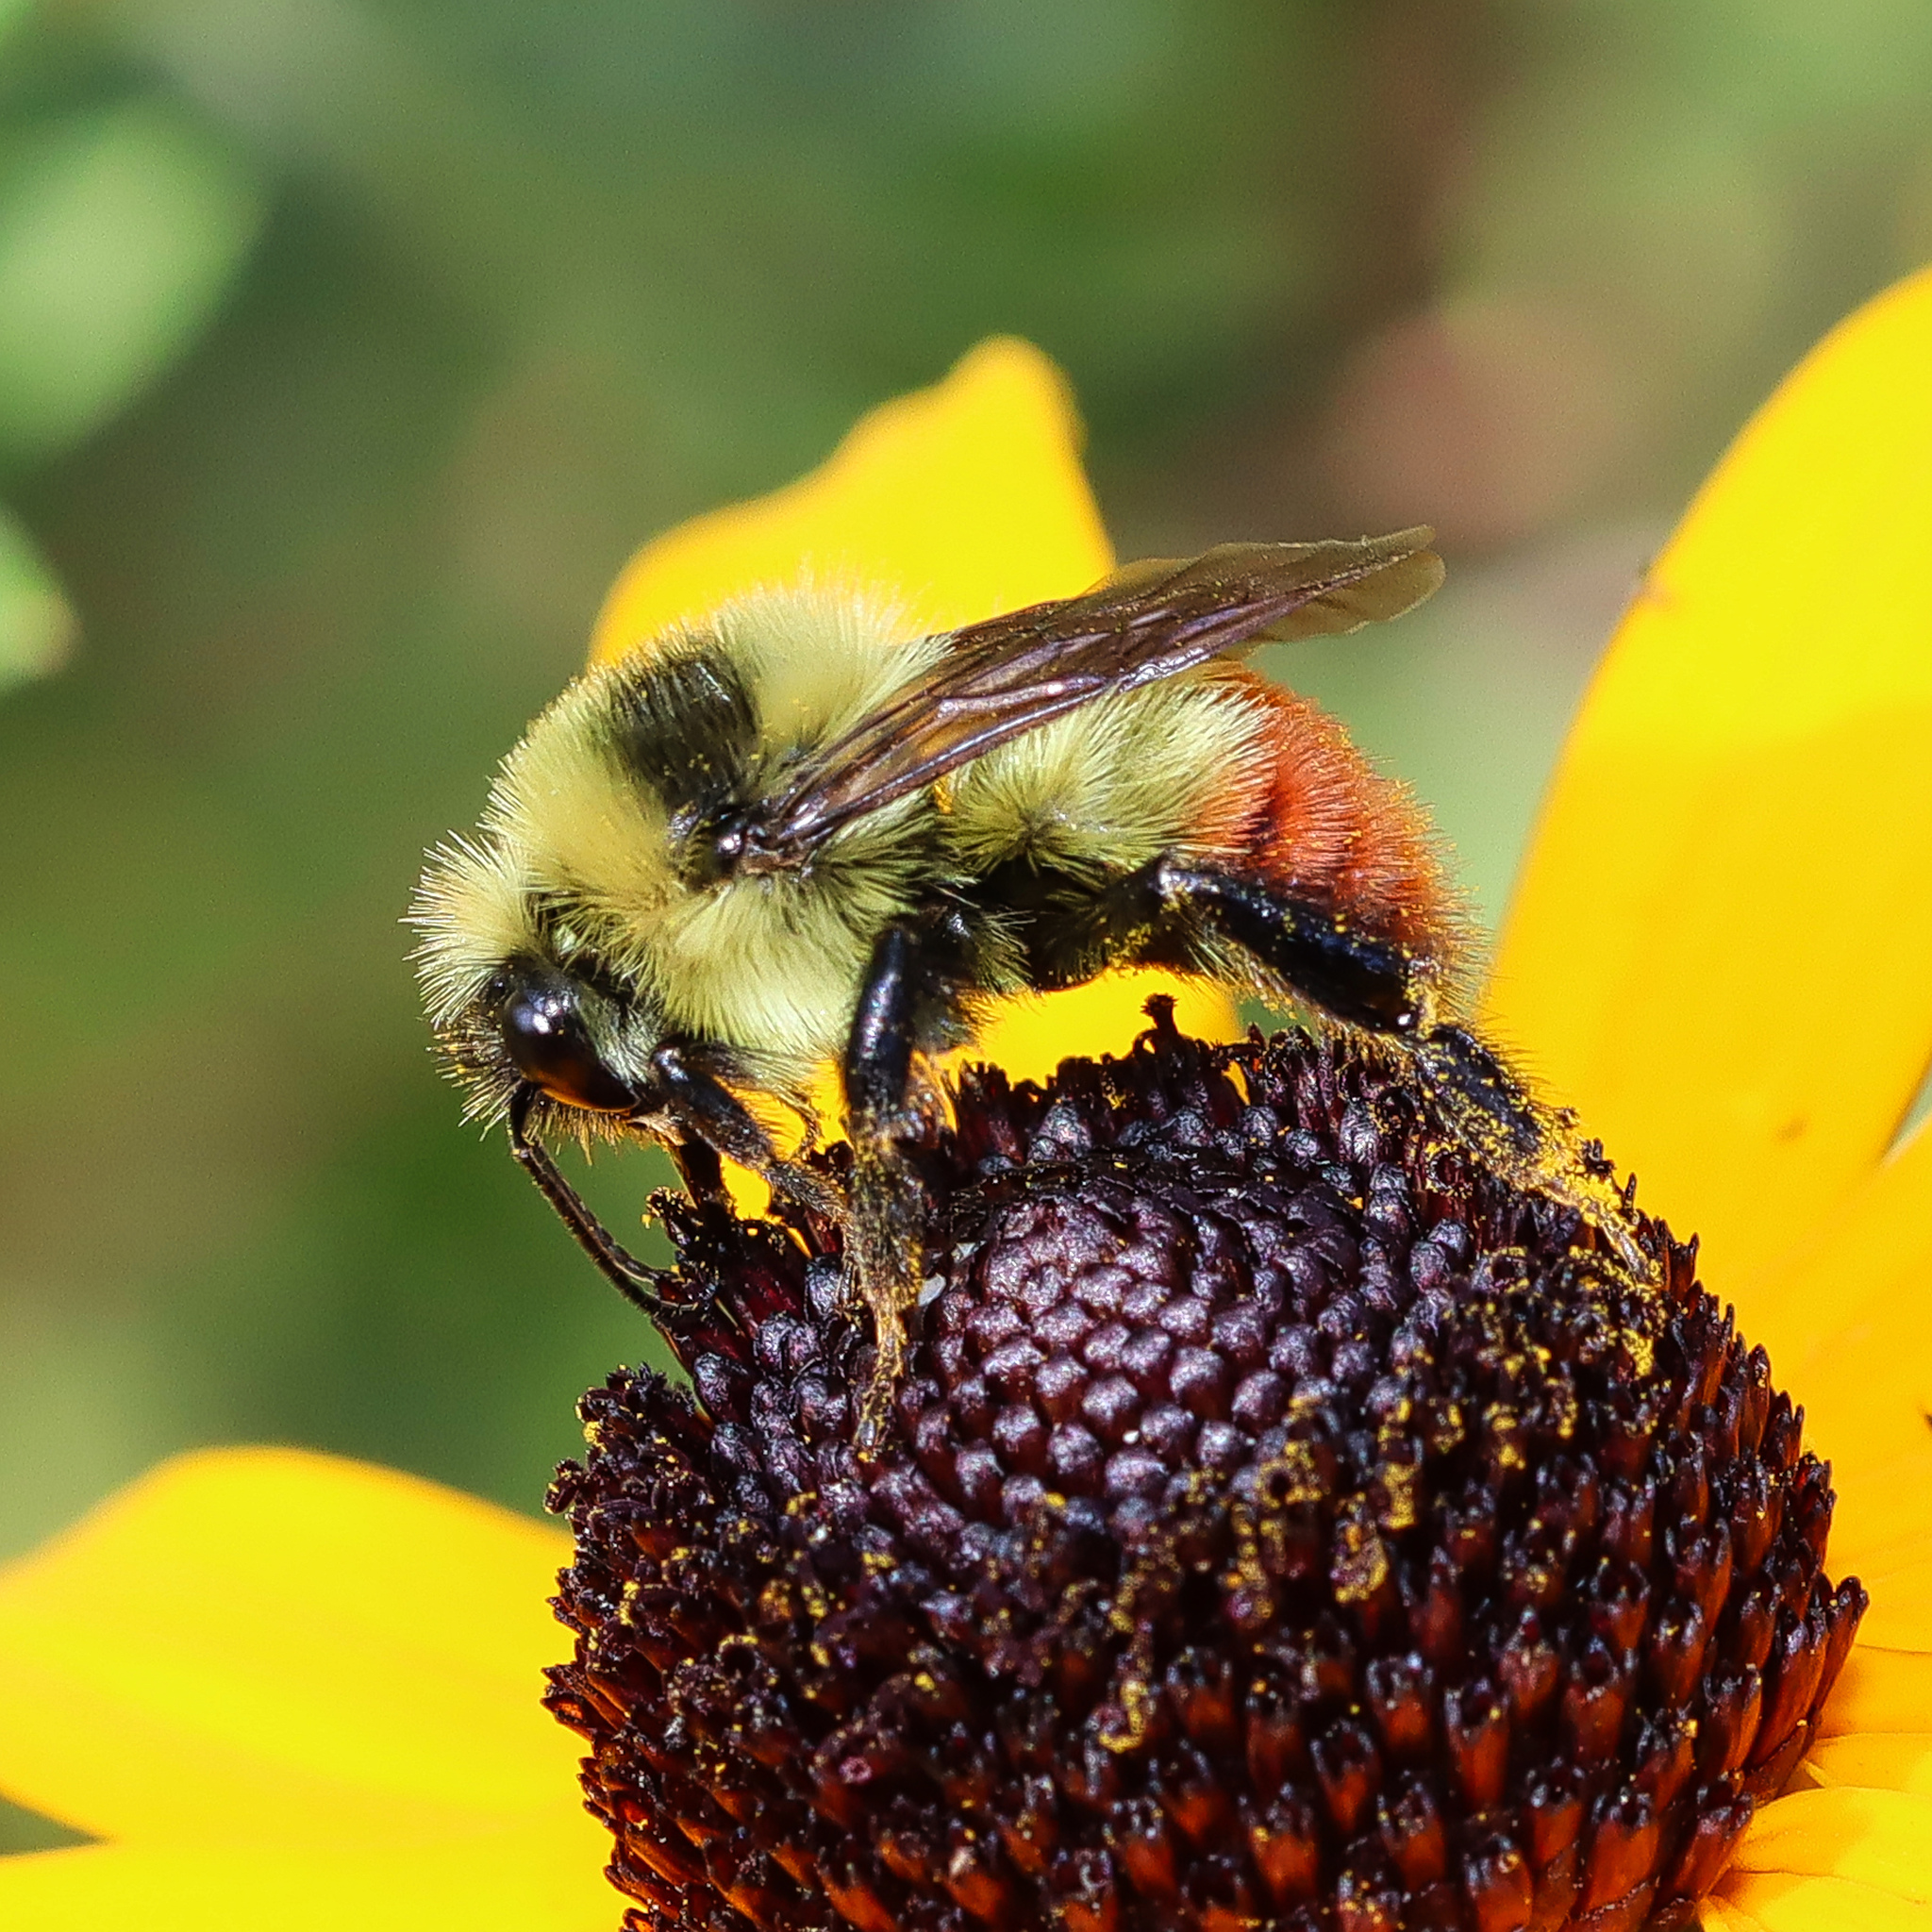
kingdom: Animalia
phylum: Arthropoda
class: Insecta
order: Hymenoptera
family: Apidae
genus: Bombus
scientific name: Bombus rufocinctus
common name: Red-belted bumble bee
